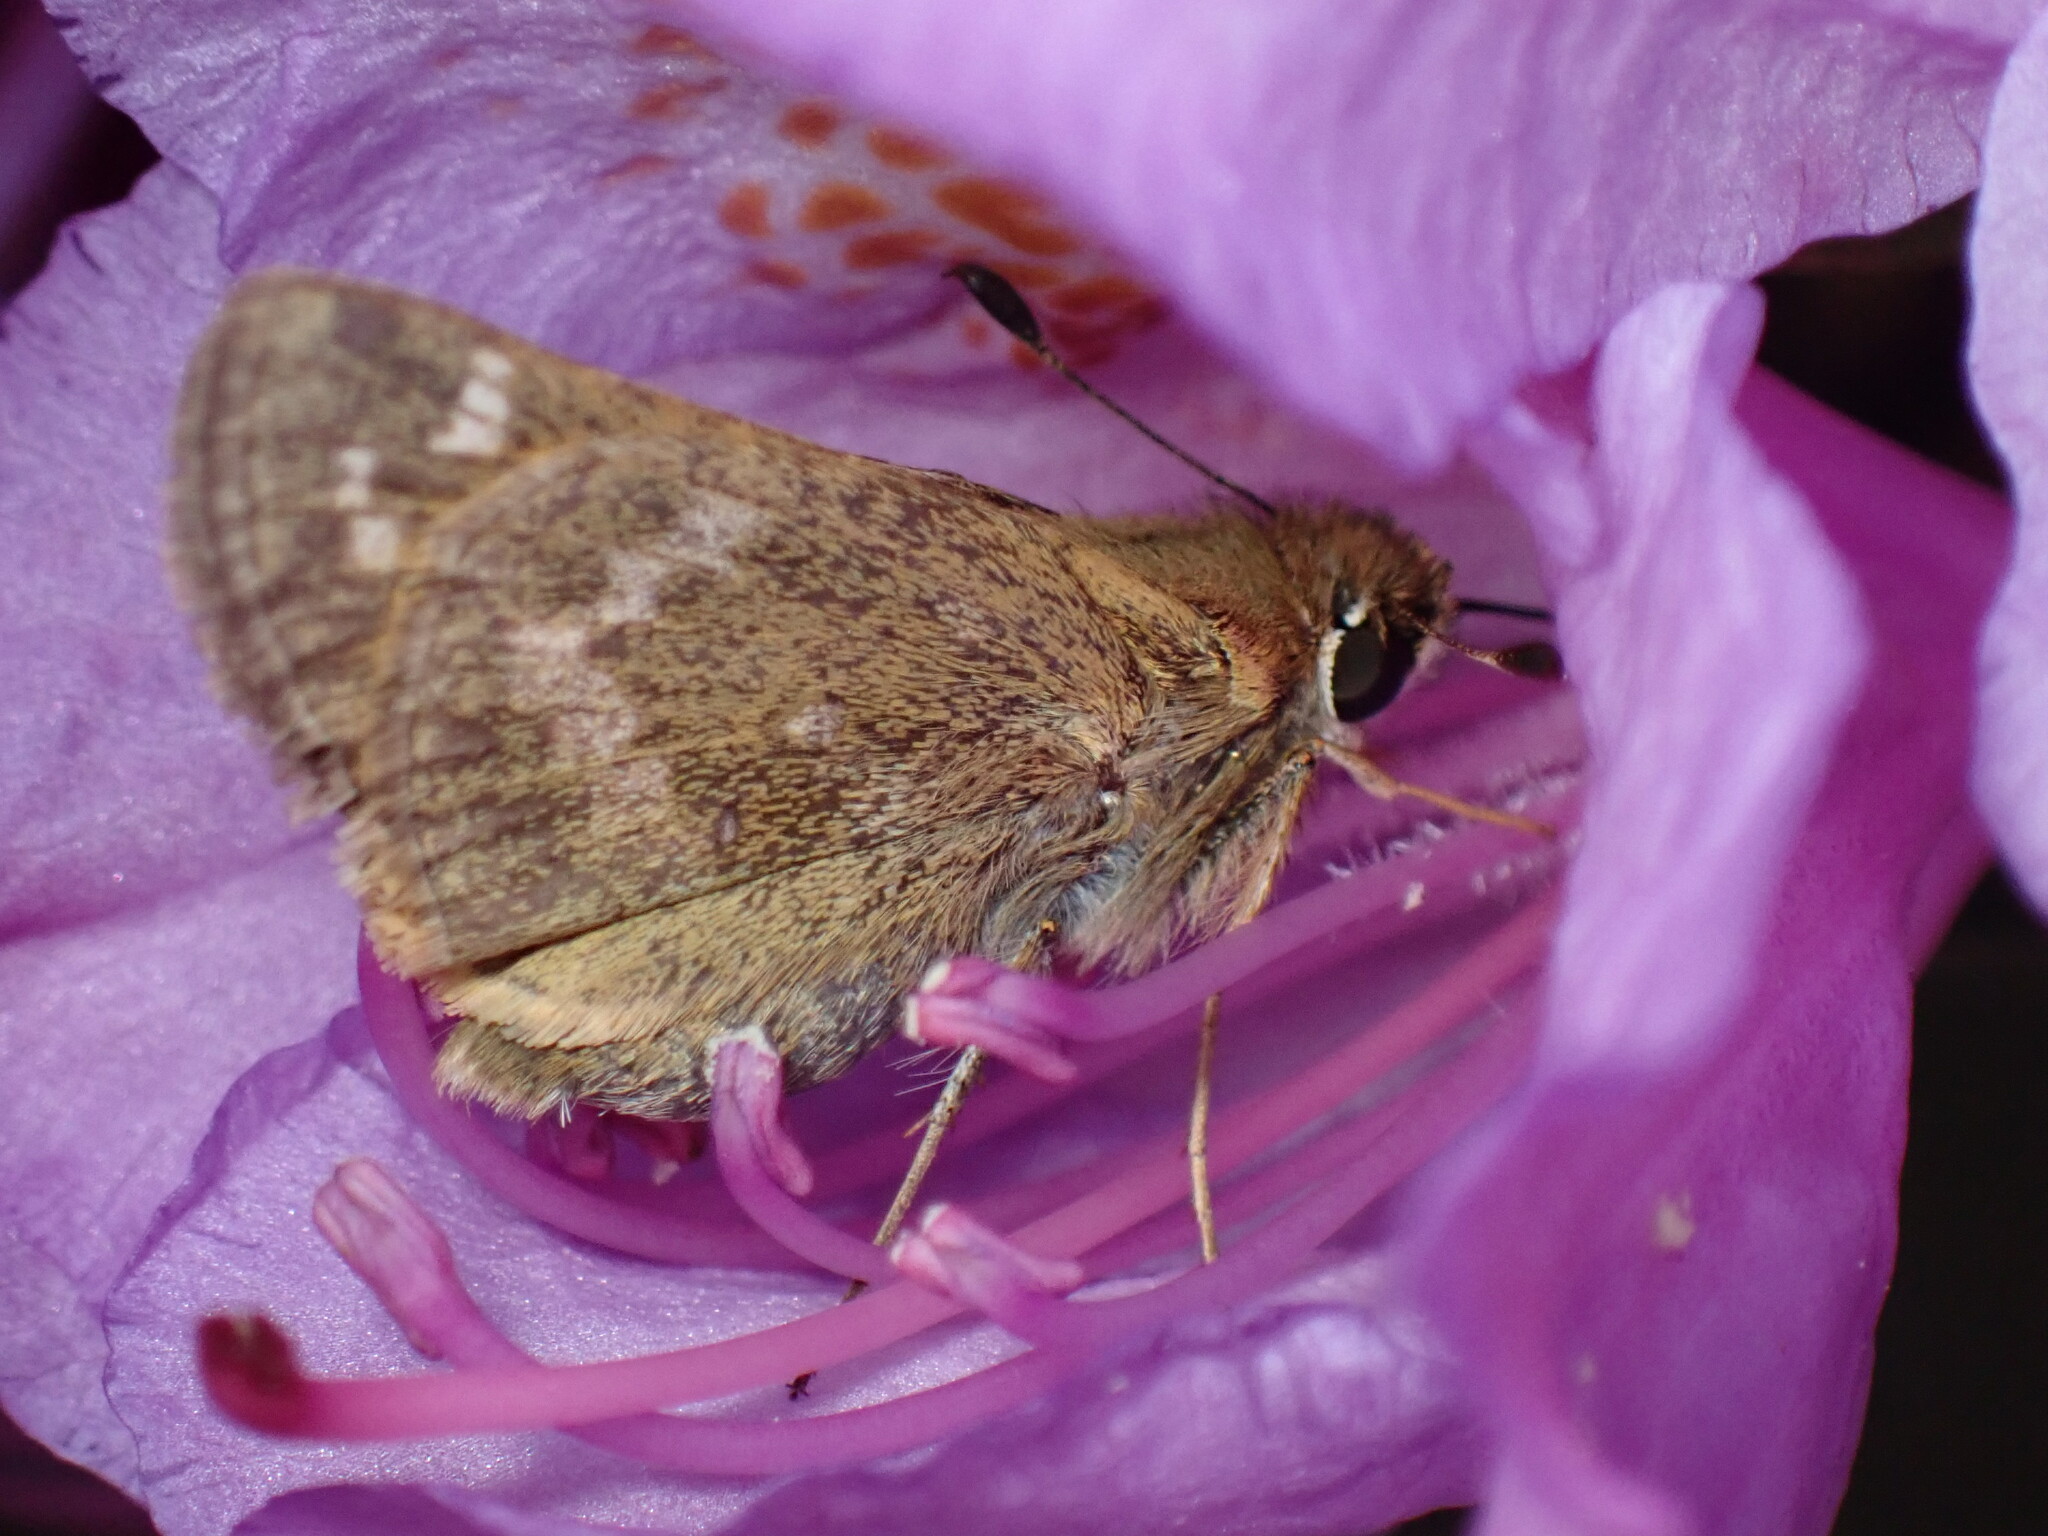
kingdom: Animalia
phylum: Arthropoda
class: Insecta
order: Lepidoptera
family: Hesperiidae
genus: Atalopedes
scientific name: Atalopedes
